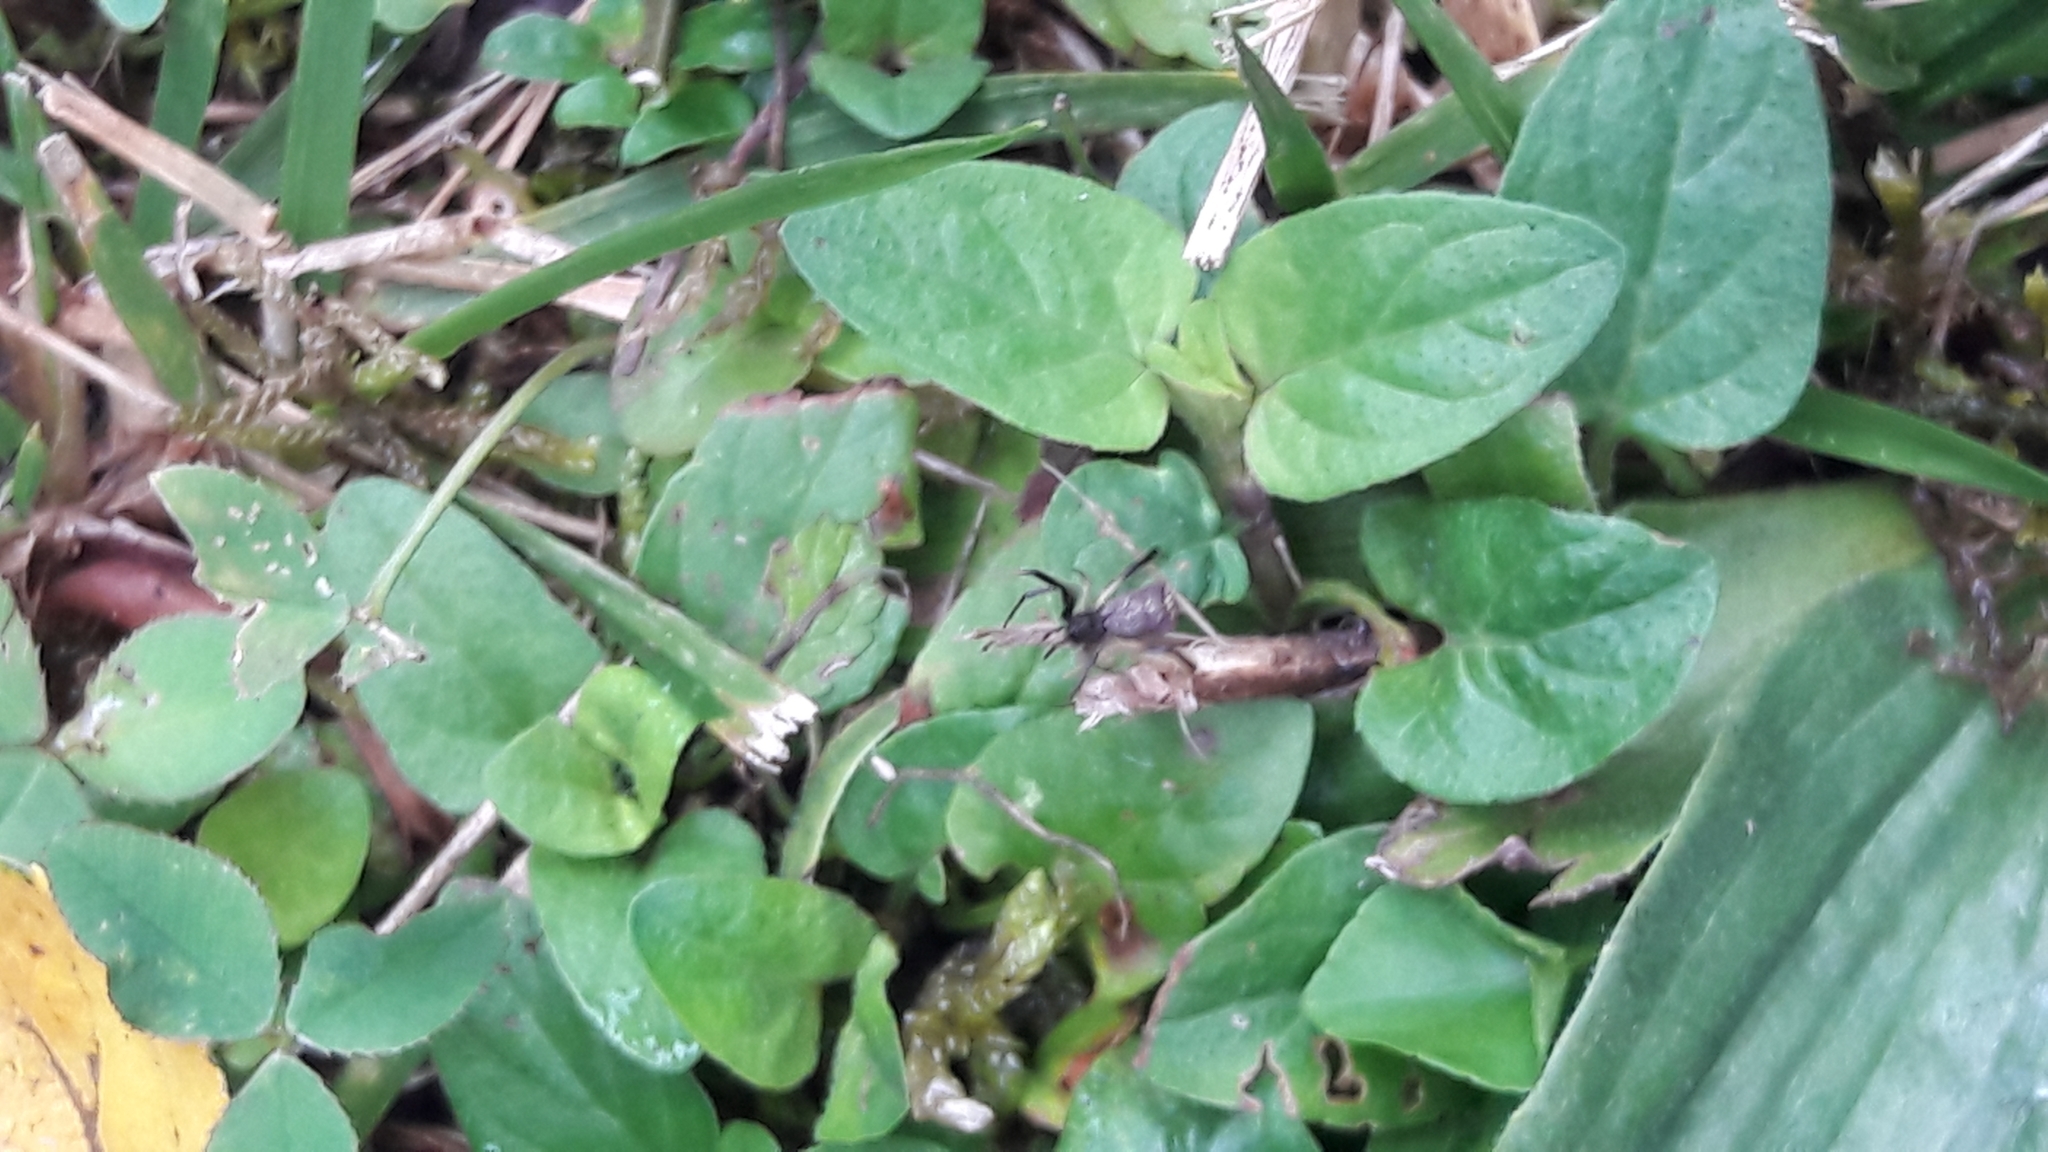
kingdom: Animalia
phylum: Arthropoda
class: Arachnida
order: Araneae
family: Theridiidae
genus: Episinus
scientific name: Episinus truncatus
